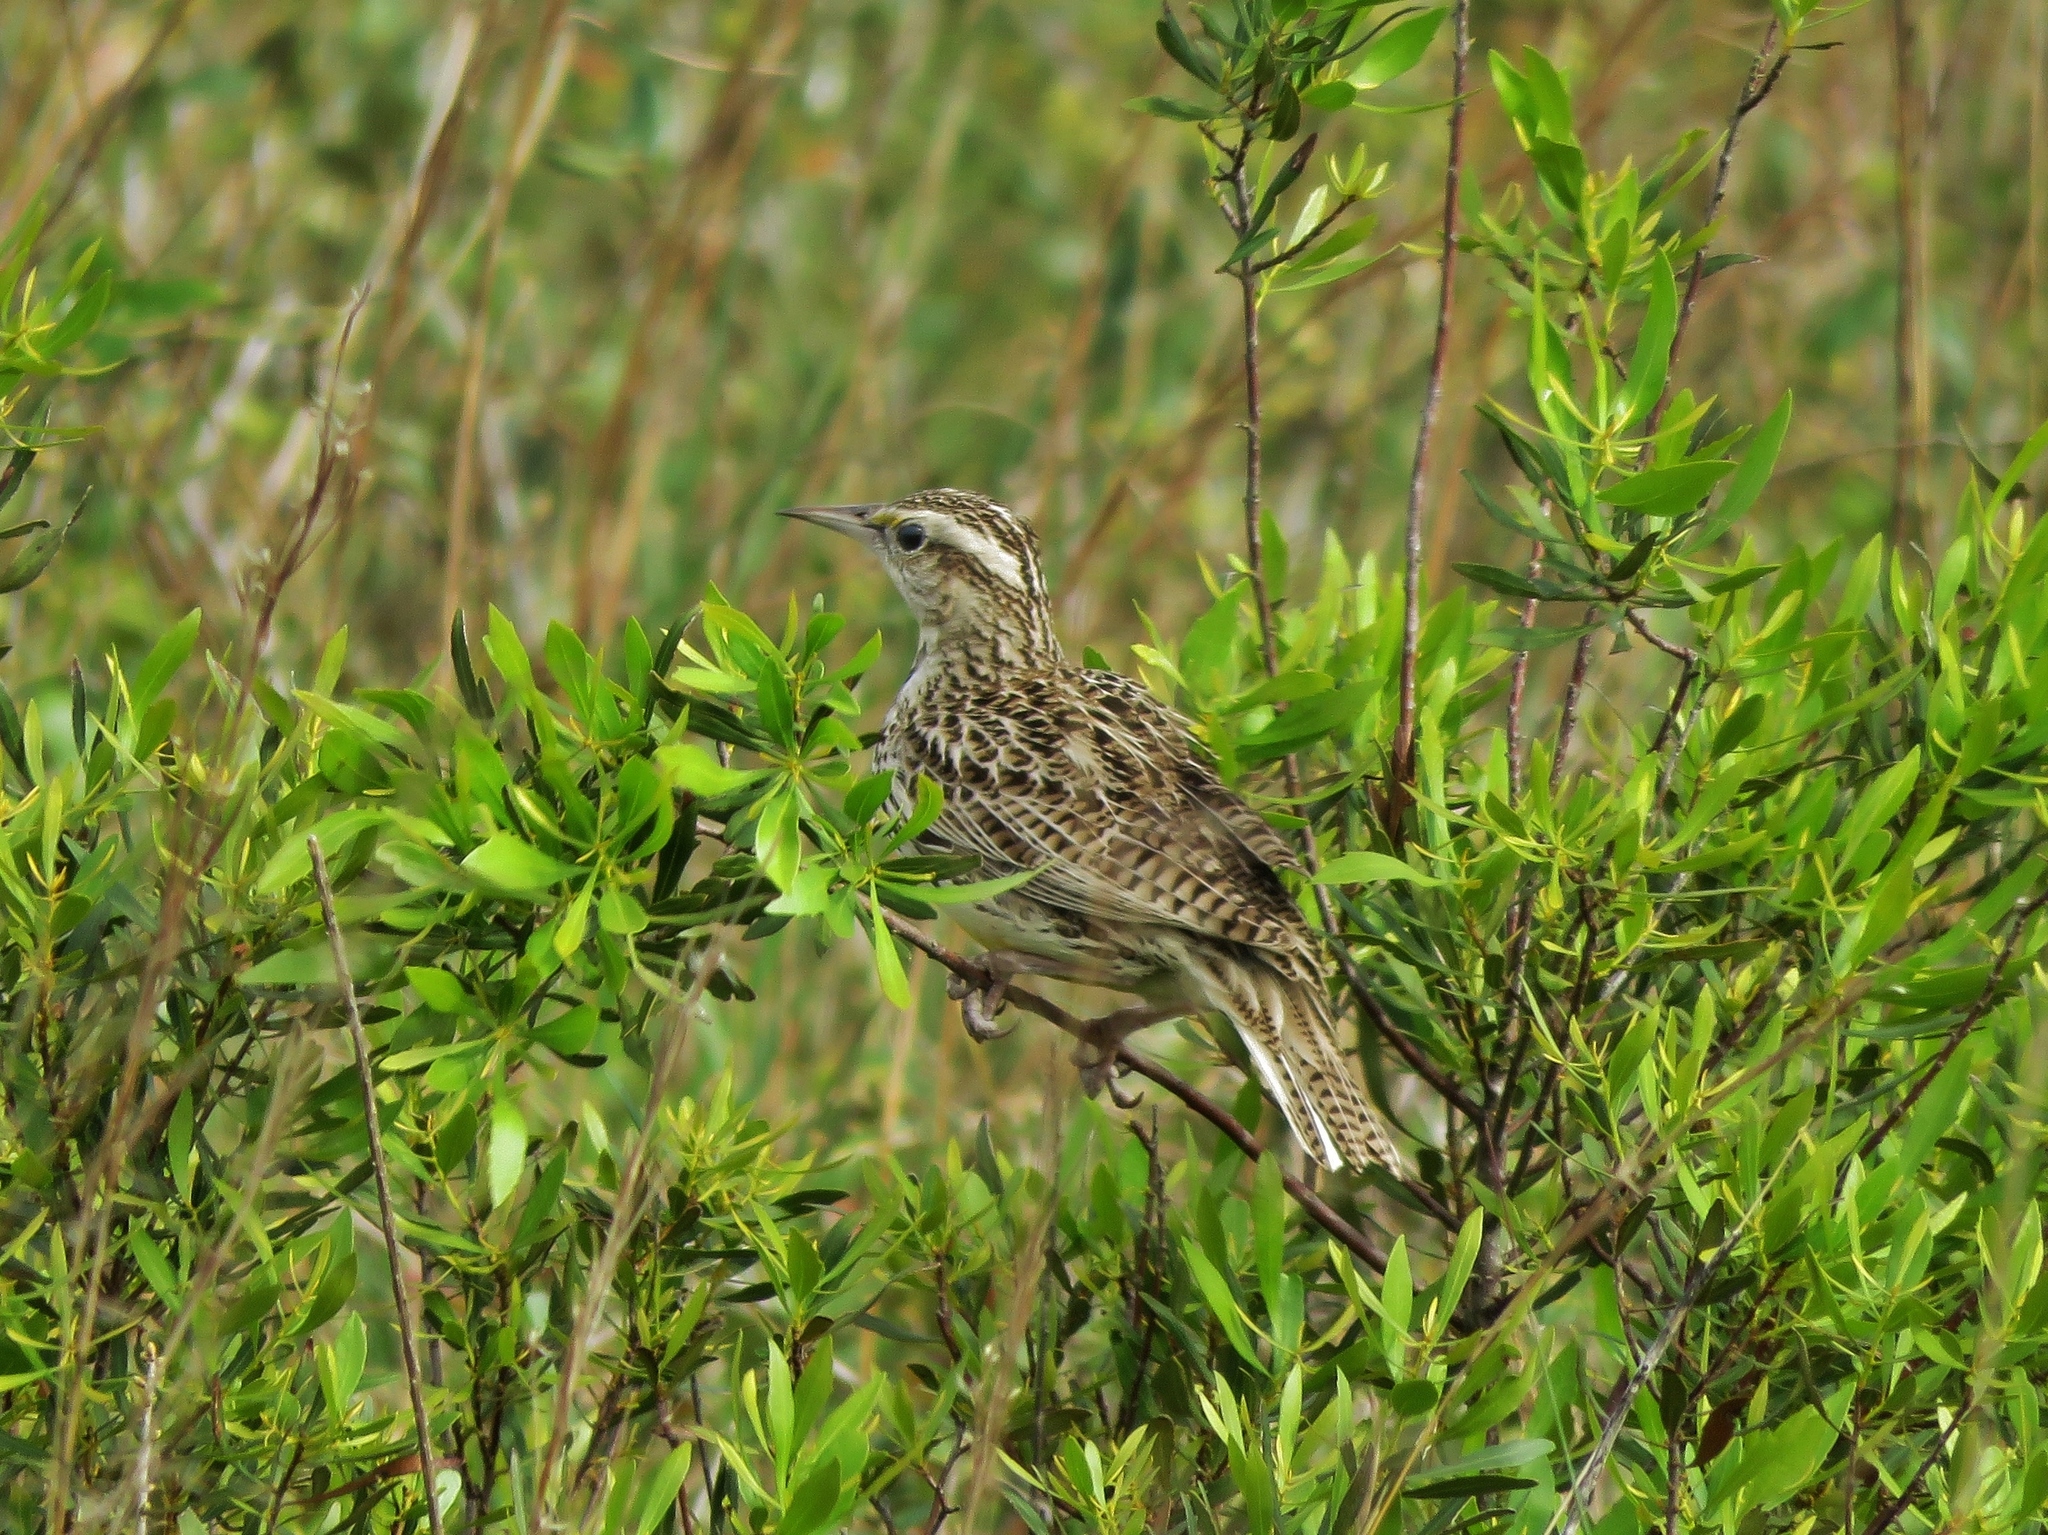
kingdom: Animalia
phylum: Chordata
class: Aves
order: Passeriformes
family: Icteridae
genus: Sturnella
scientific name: Sturnella neglecta
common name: Western meadowlark
